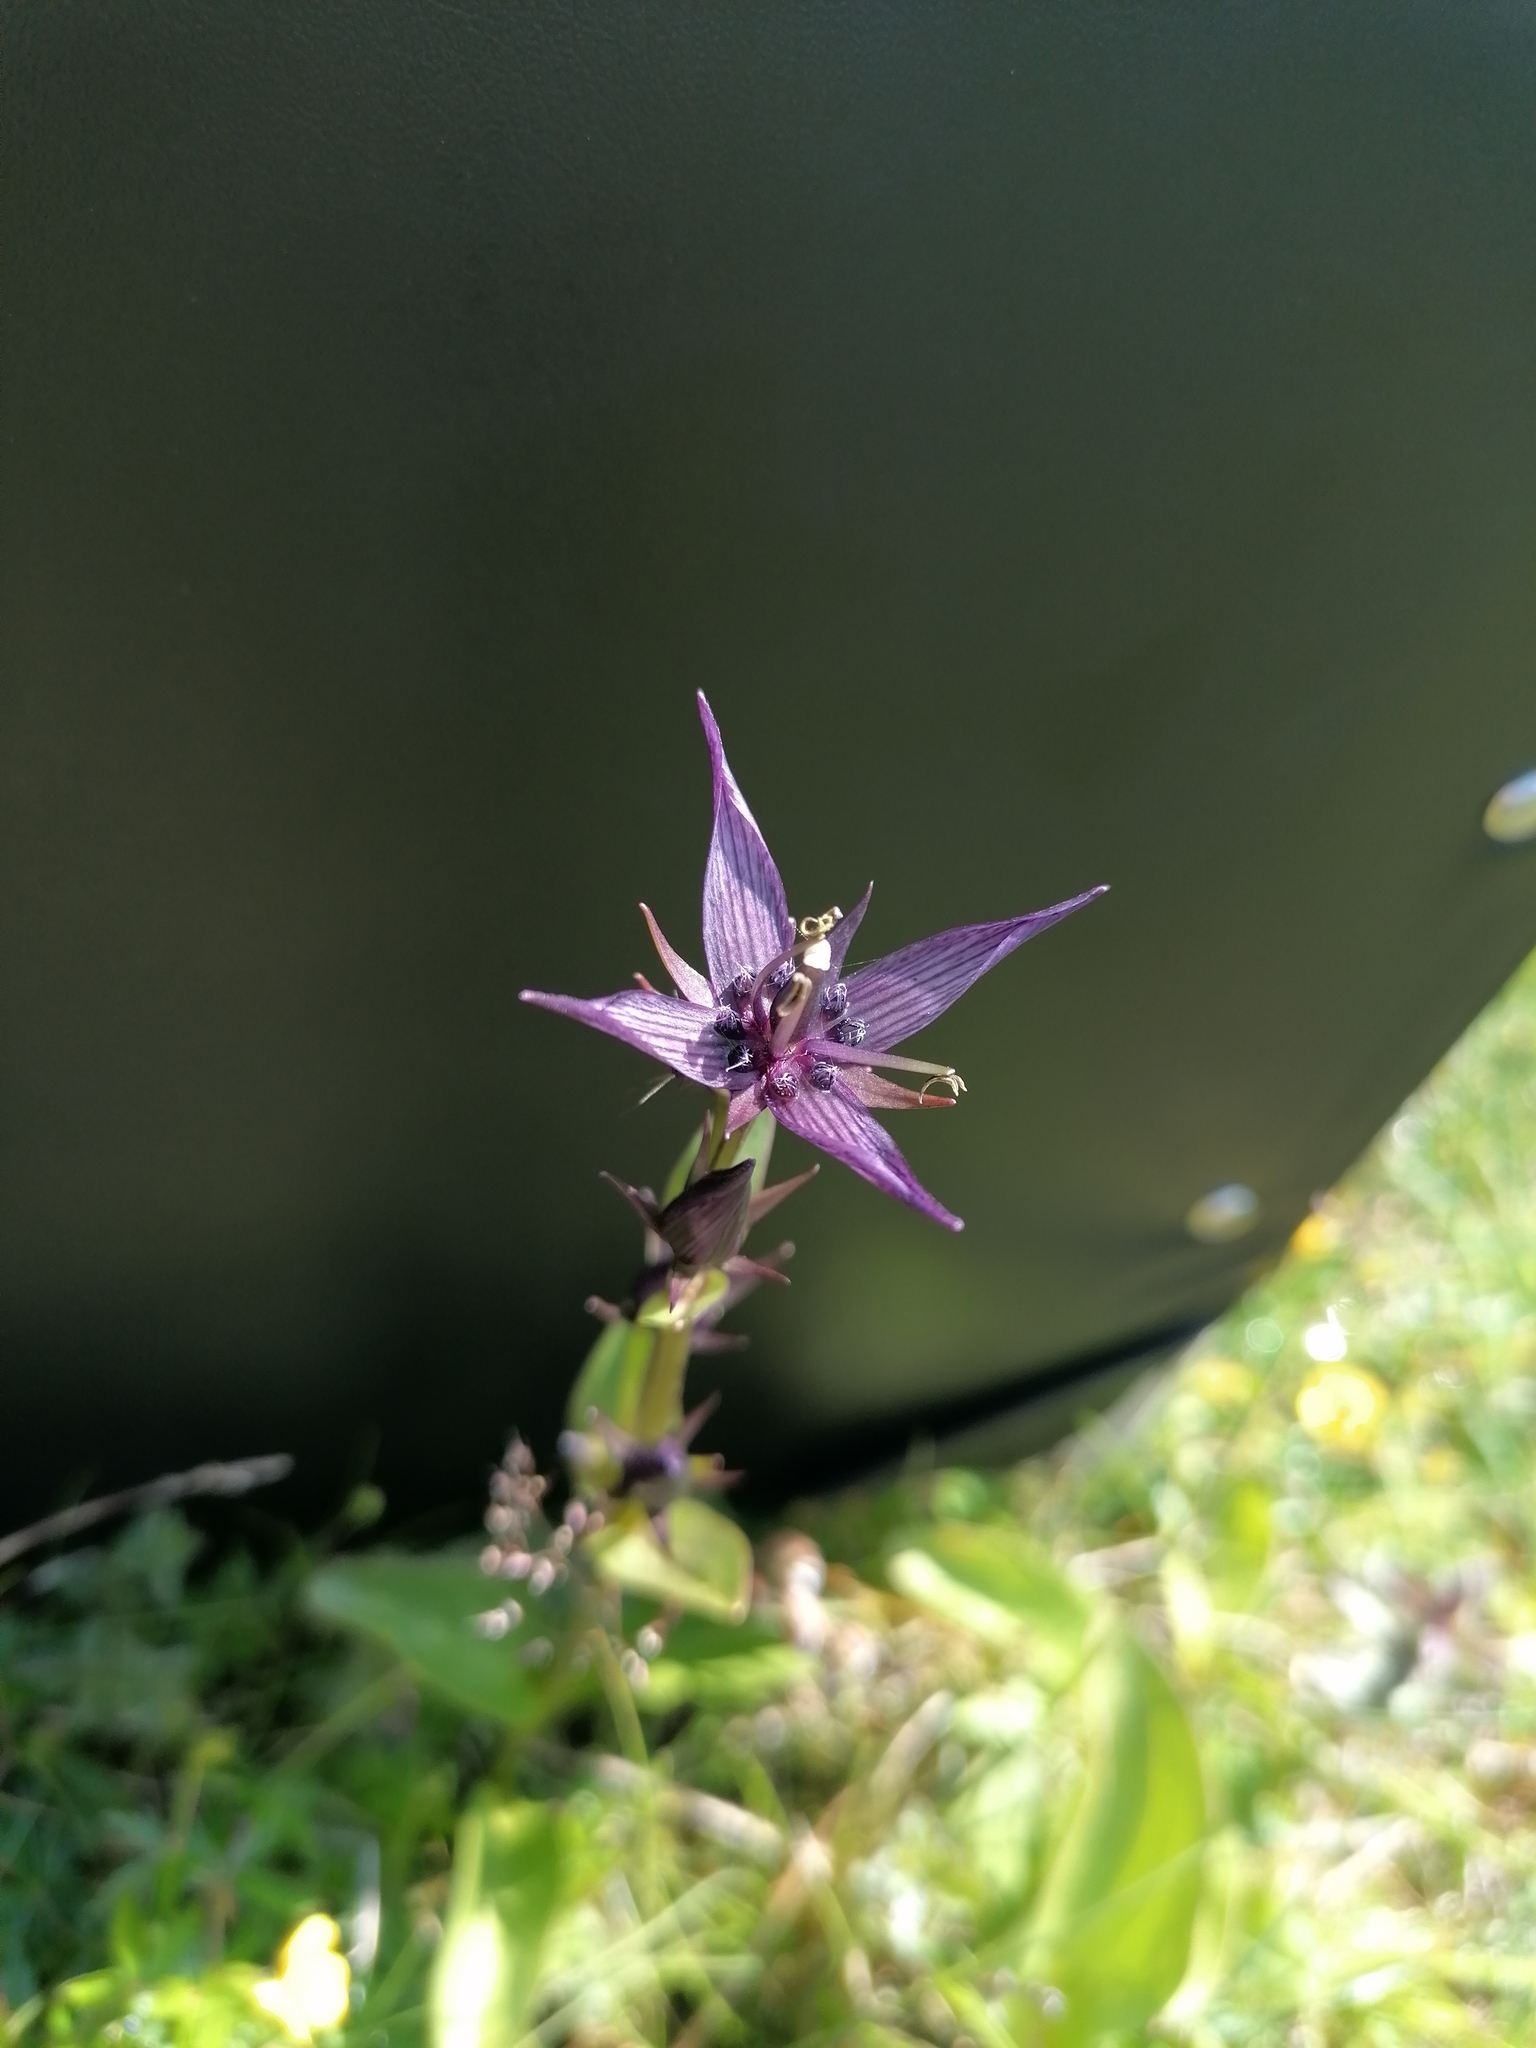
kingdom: Plantae
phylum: Tracheophyta
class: Magnoliopsida
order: Gentianales
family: Gentianaceae
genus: Swertia
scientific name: Swertia perennis
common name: Alpine bog swertia
